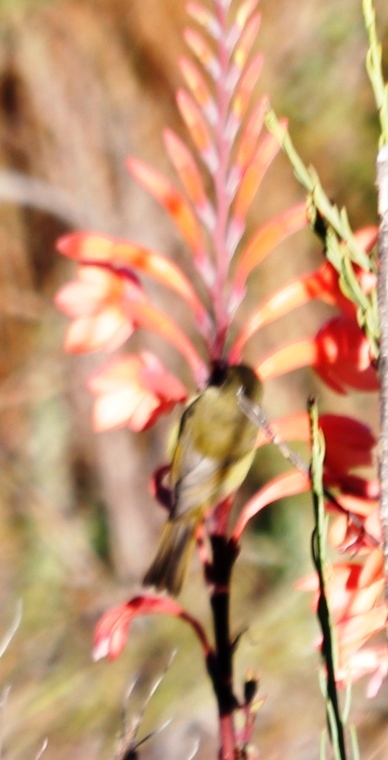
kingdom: Plantae
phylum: Tracheophyta
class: Liliopsida
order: Asparagales
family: Iridaceae
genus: Watsonia
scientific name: Watsonia tabularis
